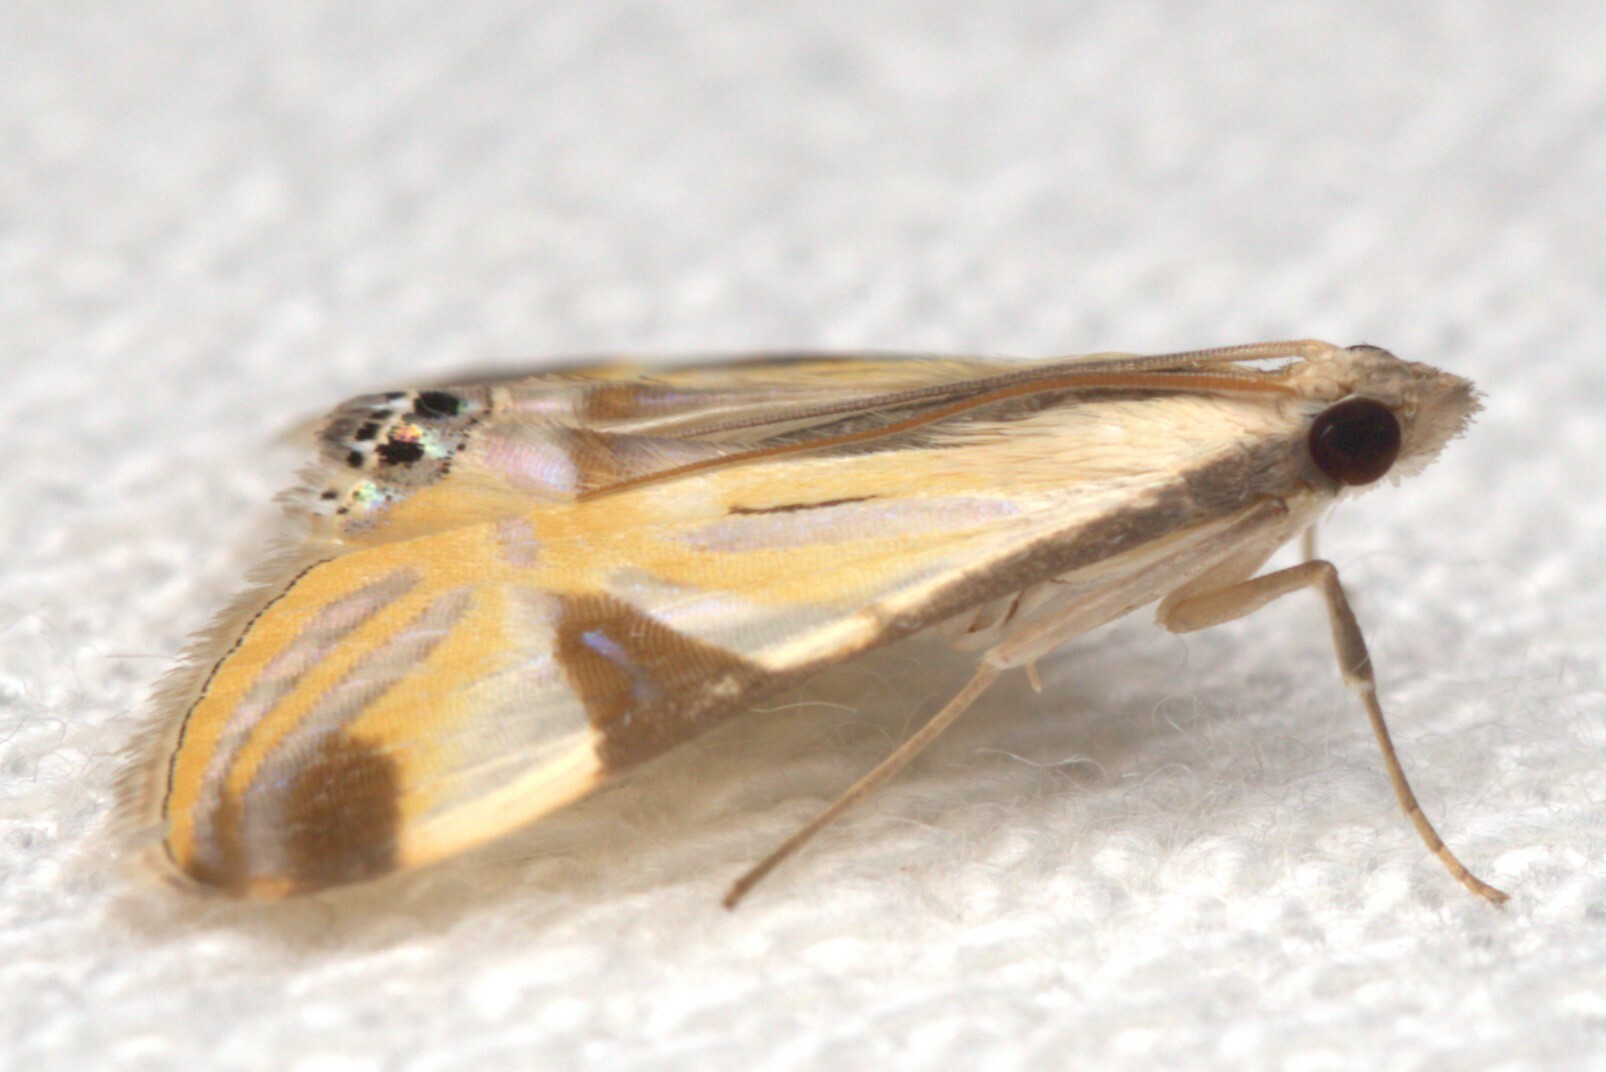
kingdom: Animalia
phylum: Arthropoda
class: Insecta
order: Lepidoptera
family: Crambidae
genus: Talanga
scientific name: Talanga tolumnialis
